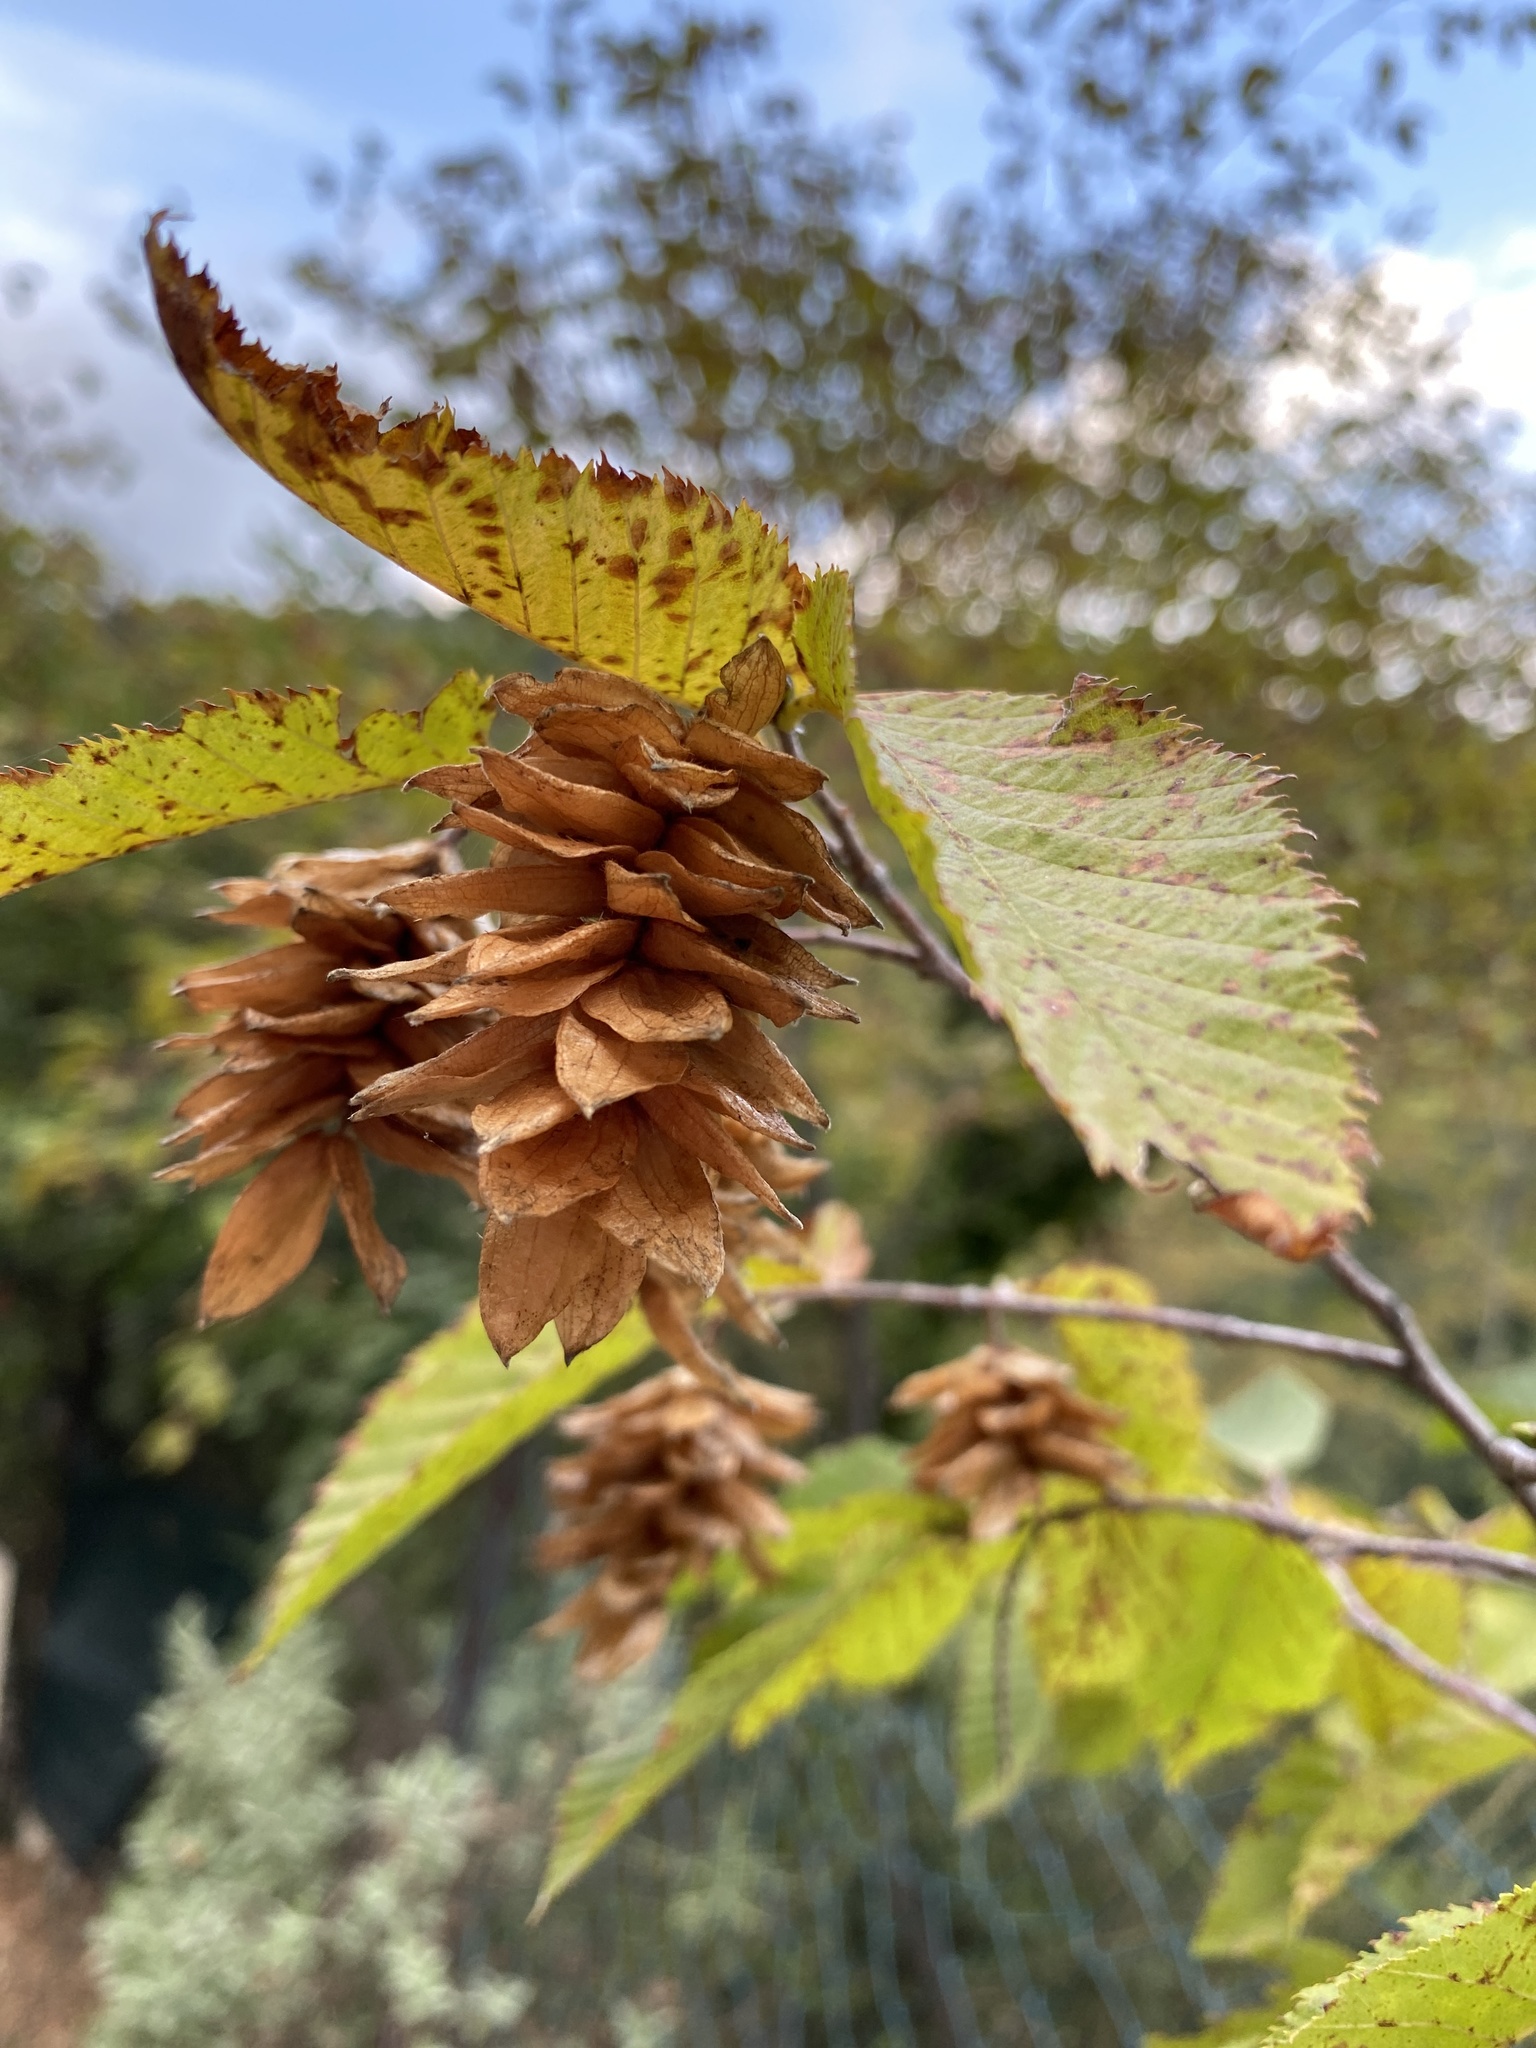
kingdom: Plantae
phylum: Tracheophyta
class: Magnoliopsida
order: Fagales
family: Betulaceae
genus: Ostrya
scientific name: Ostrya carpinifolia
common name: European hop-hornbeam
